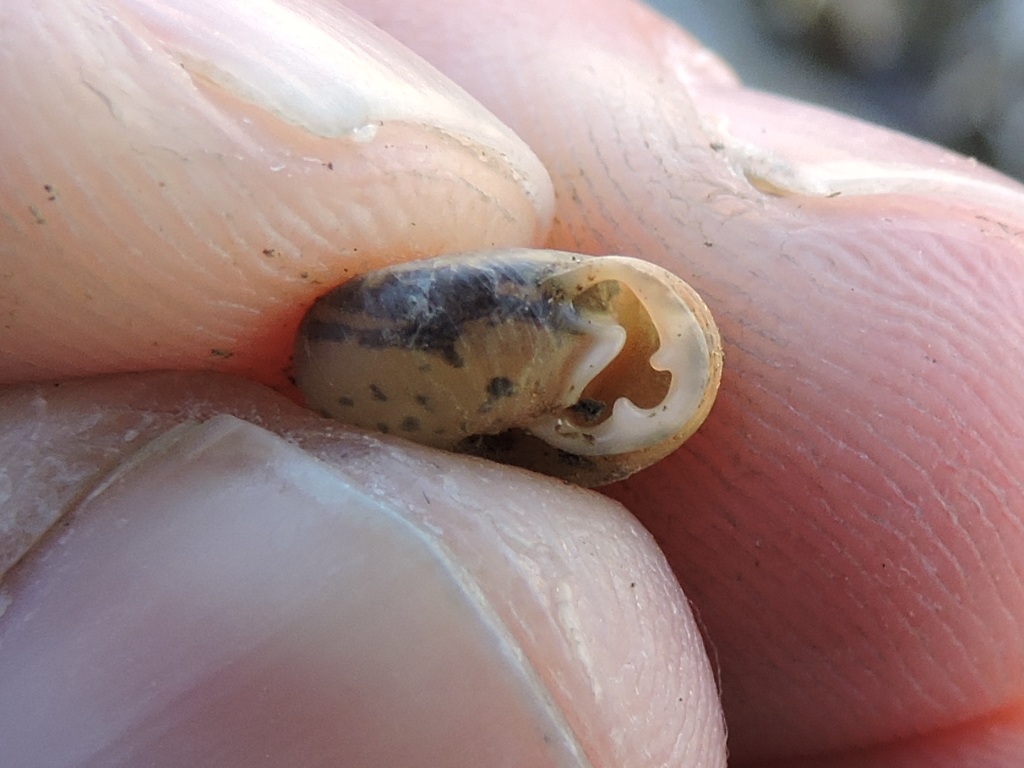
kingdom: Animalia
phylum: Mollusca
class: Gastropoda
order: Stylommatophora
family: Polygyridae
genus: Linisa
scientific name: Linisa texasiana
